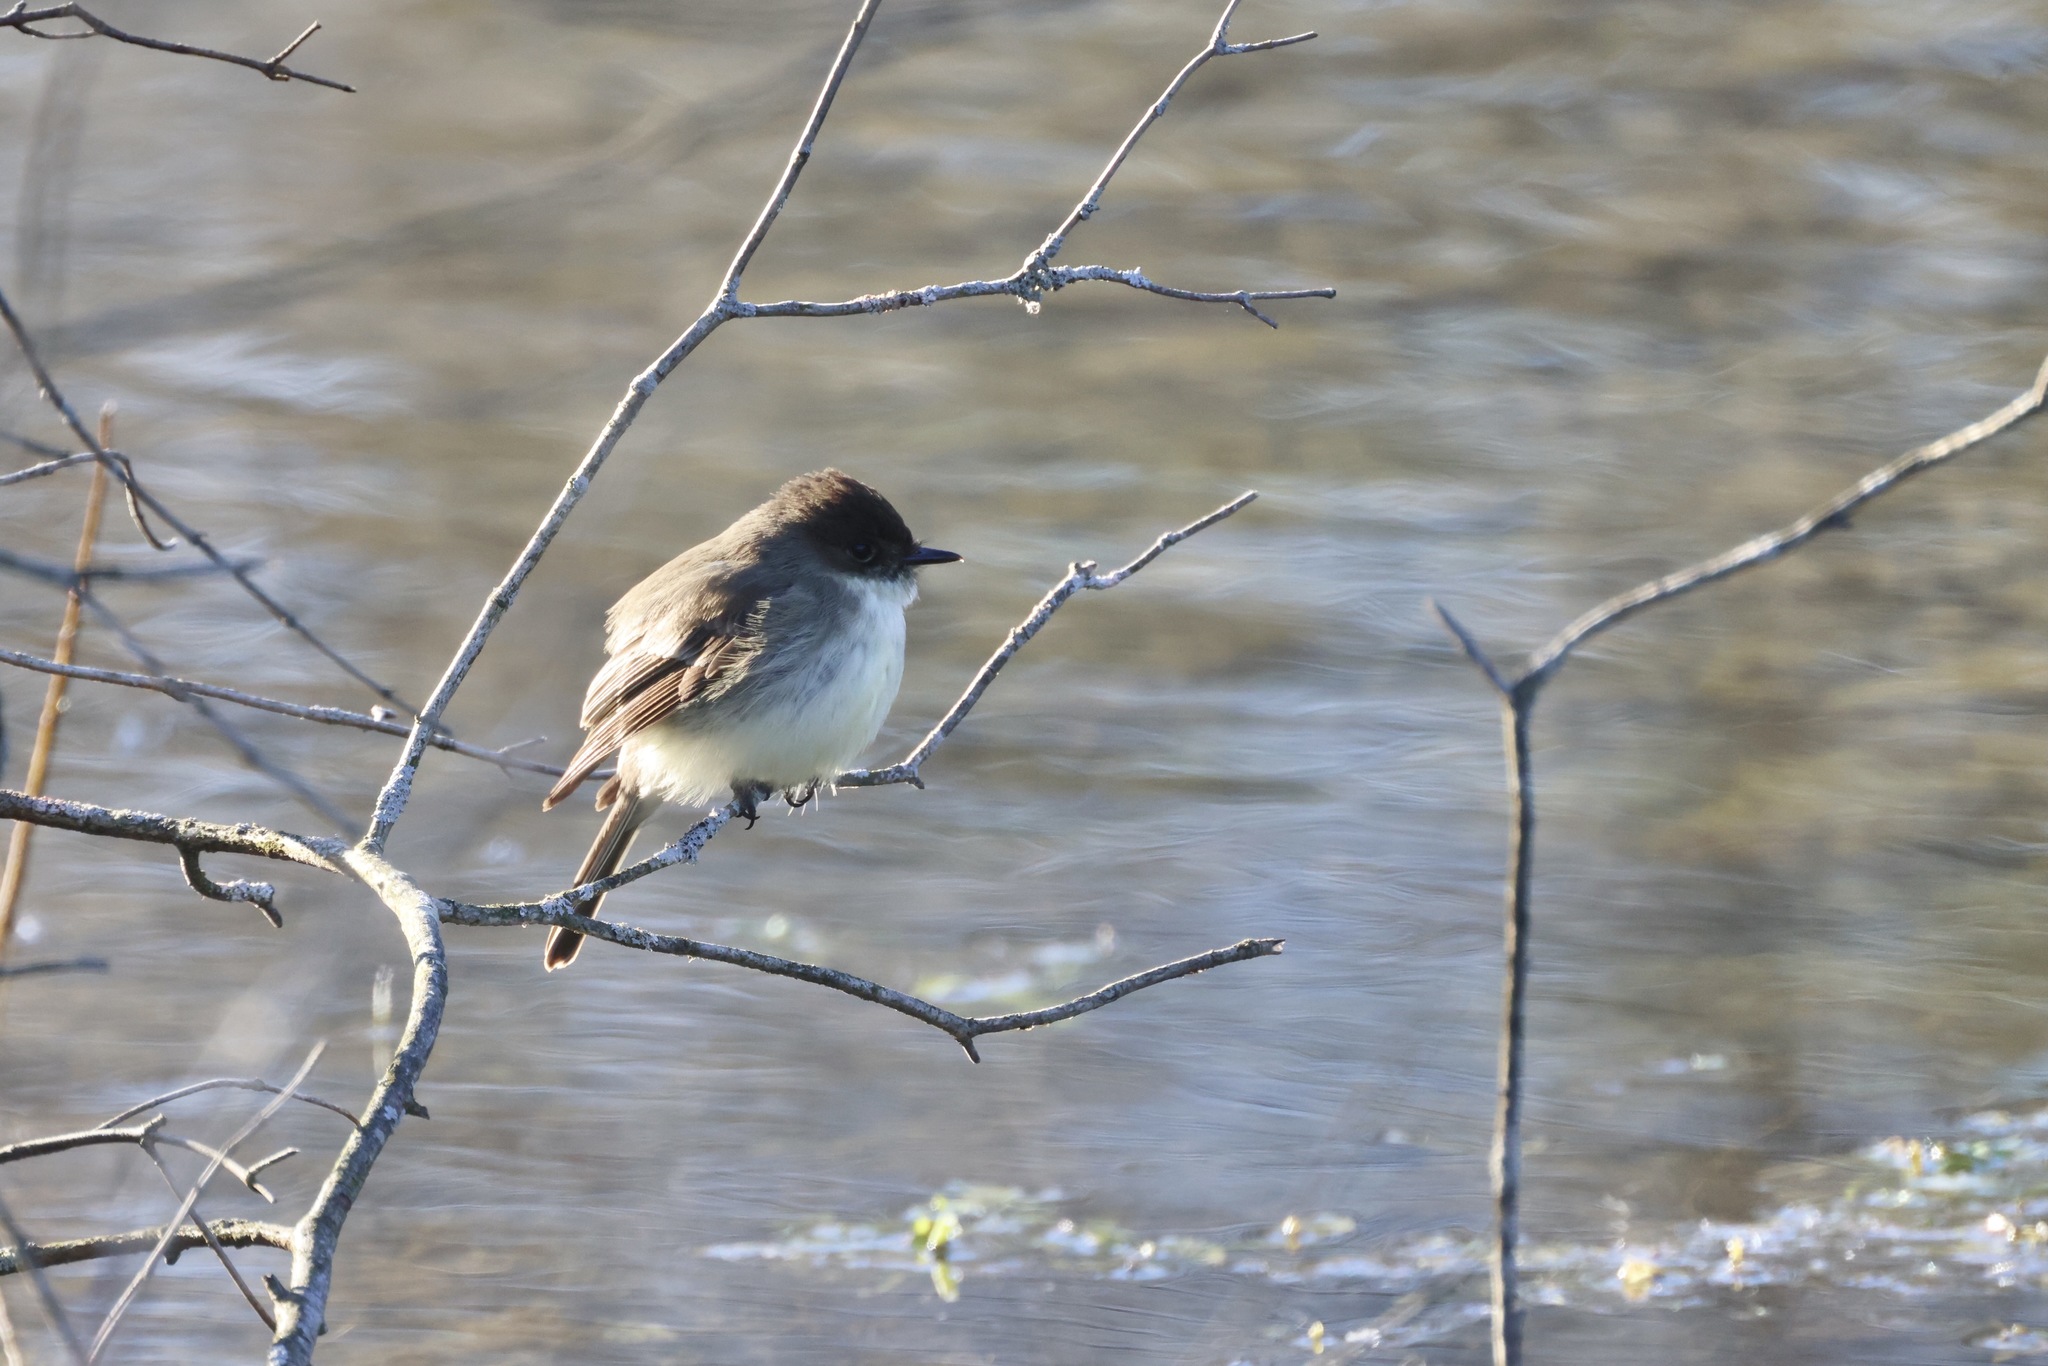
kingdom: Animalia
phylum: Chordata
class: Aves
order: Passeriformes
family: Tyrannidae
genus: Sayornis
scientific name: Sayornis phoebe
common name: Eastern phoebe
